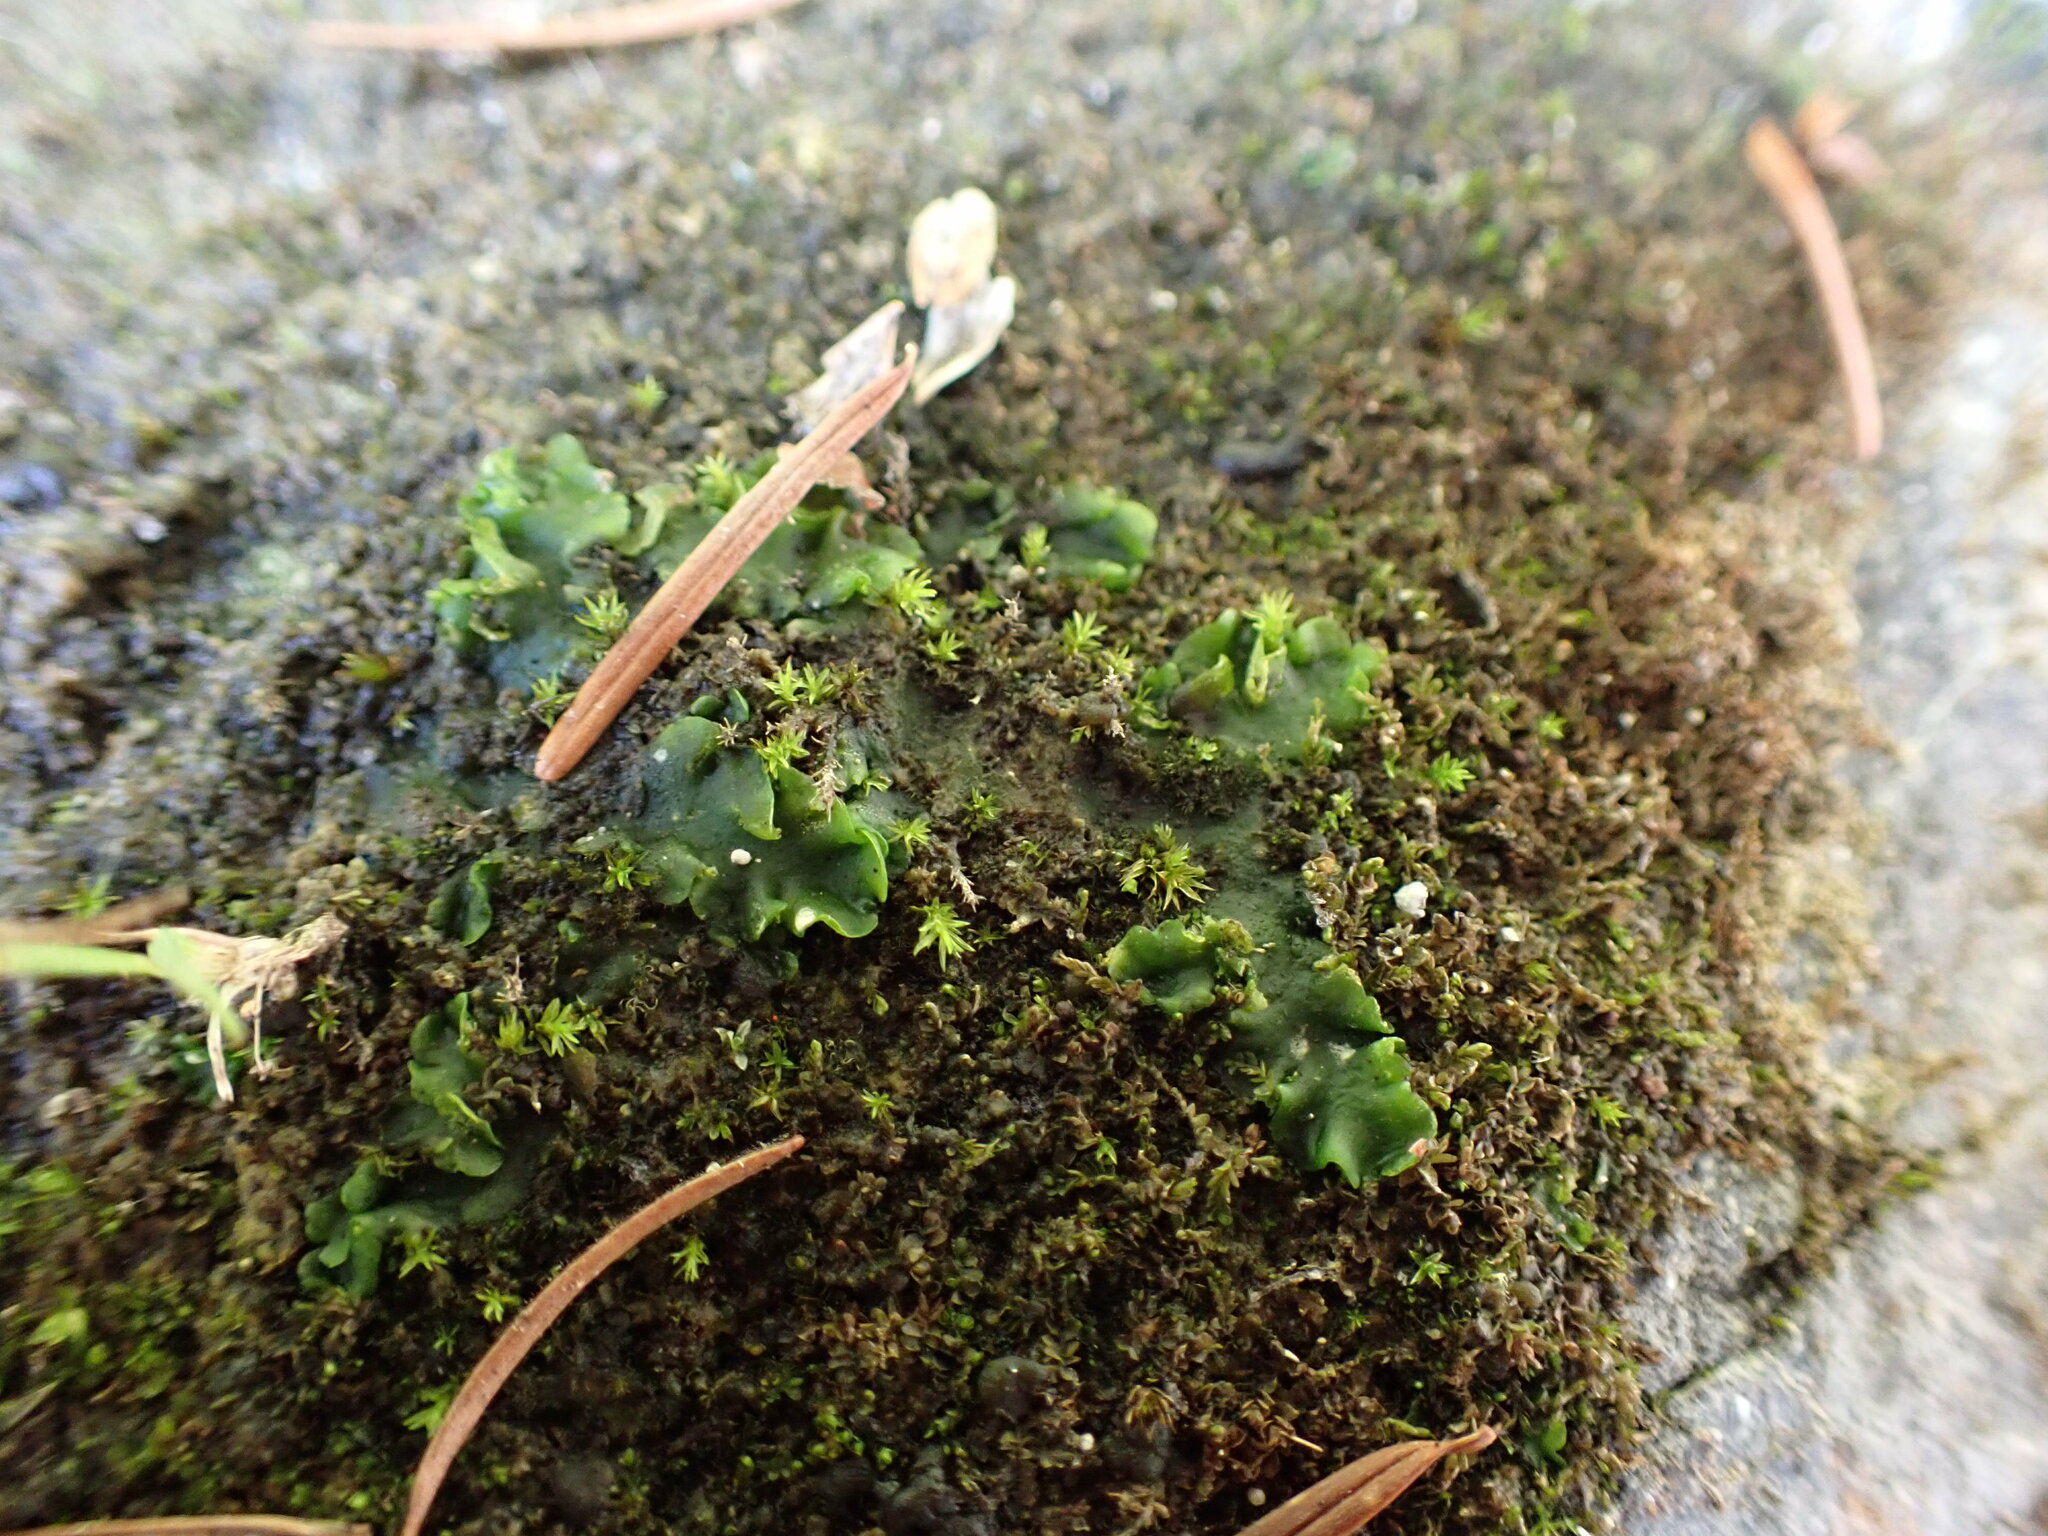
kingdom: Plantae
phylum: Marchantiophyta
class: Jungermanniopsida
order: Metzgeriales
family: Aneuraceae
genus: Aneura
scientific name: Aneura pinguis
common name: Common greasewort
